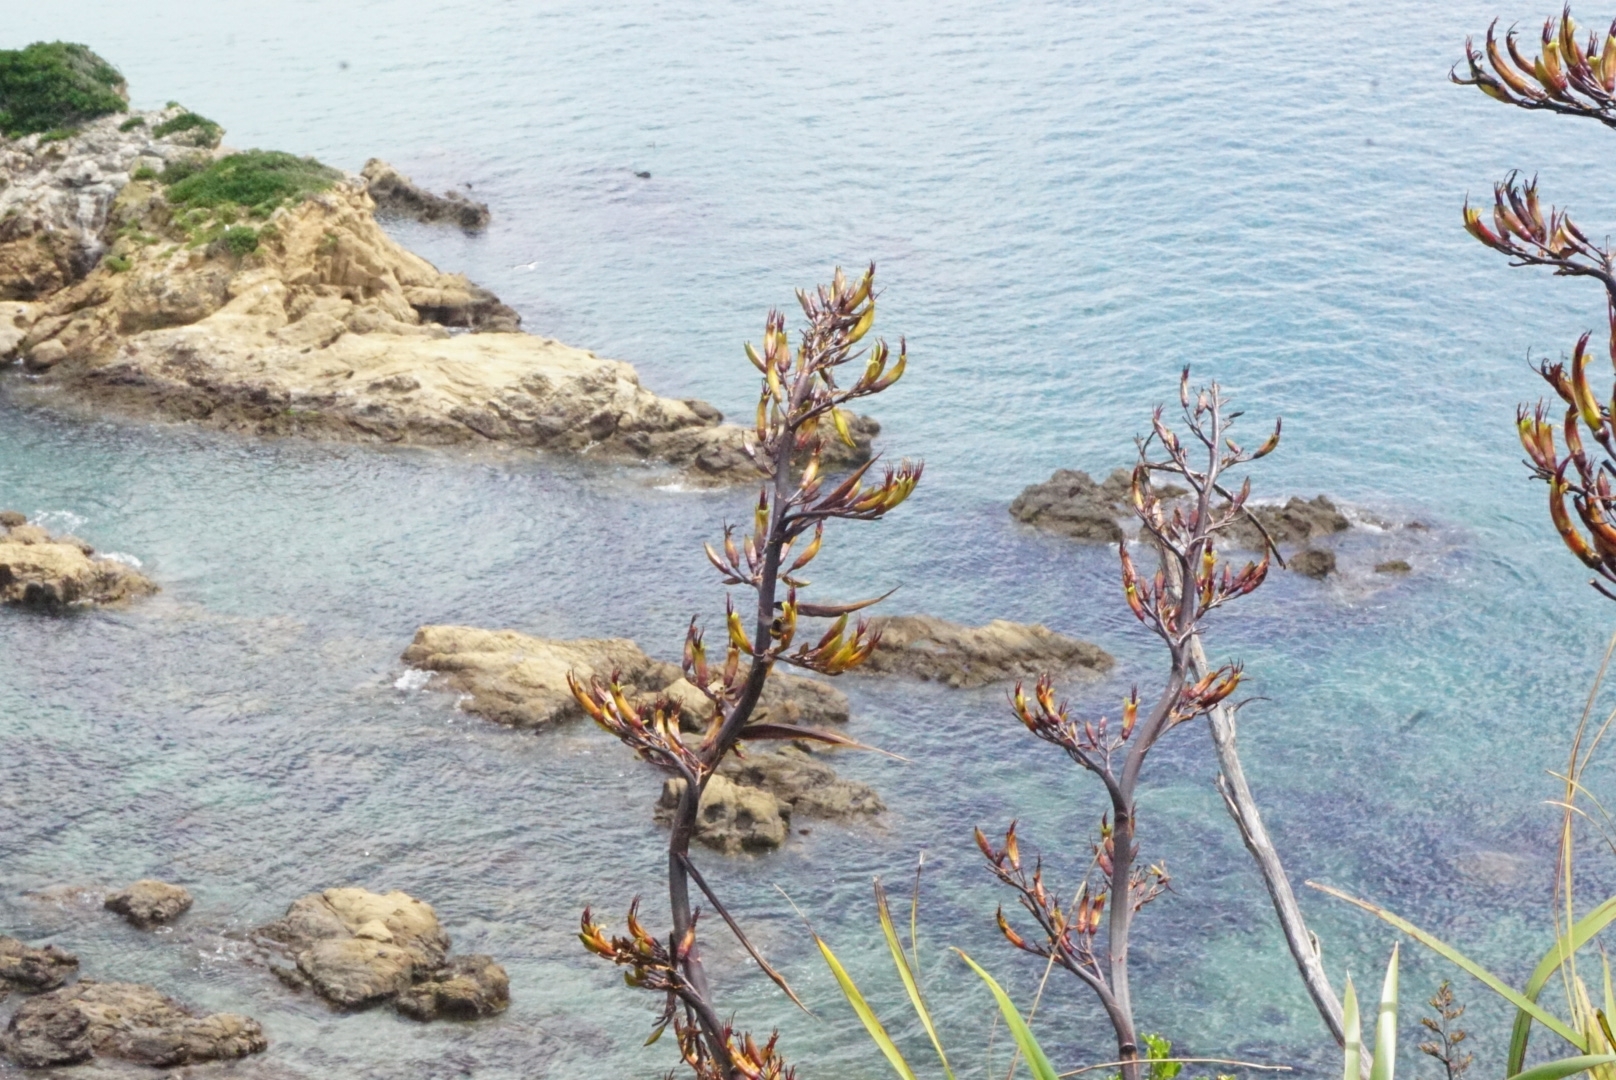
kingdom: Animalia
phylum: Arthropoda
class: Insecta
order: Hymenoptera
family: Apidae
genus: Bombus
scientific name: Bombus terrestris
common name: Buff-tailed bumblebee
